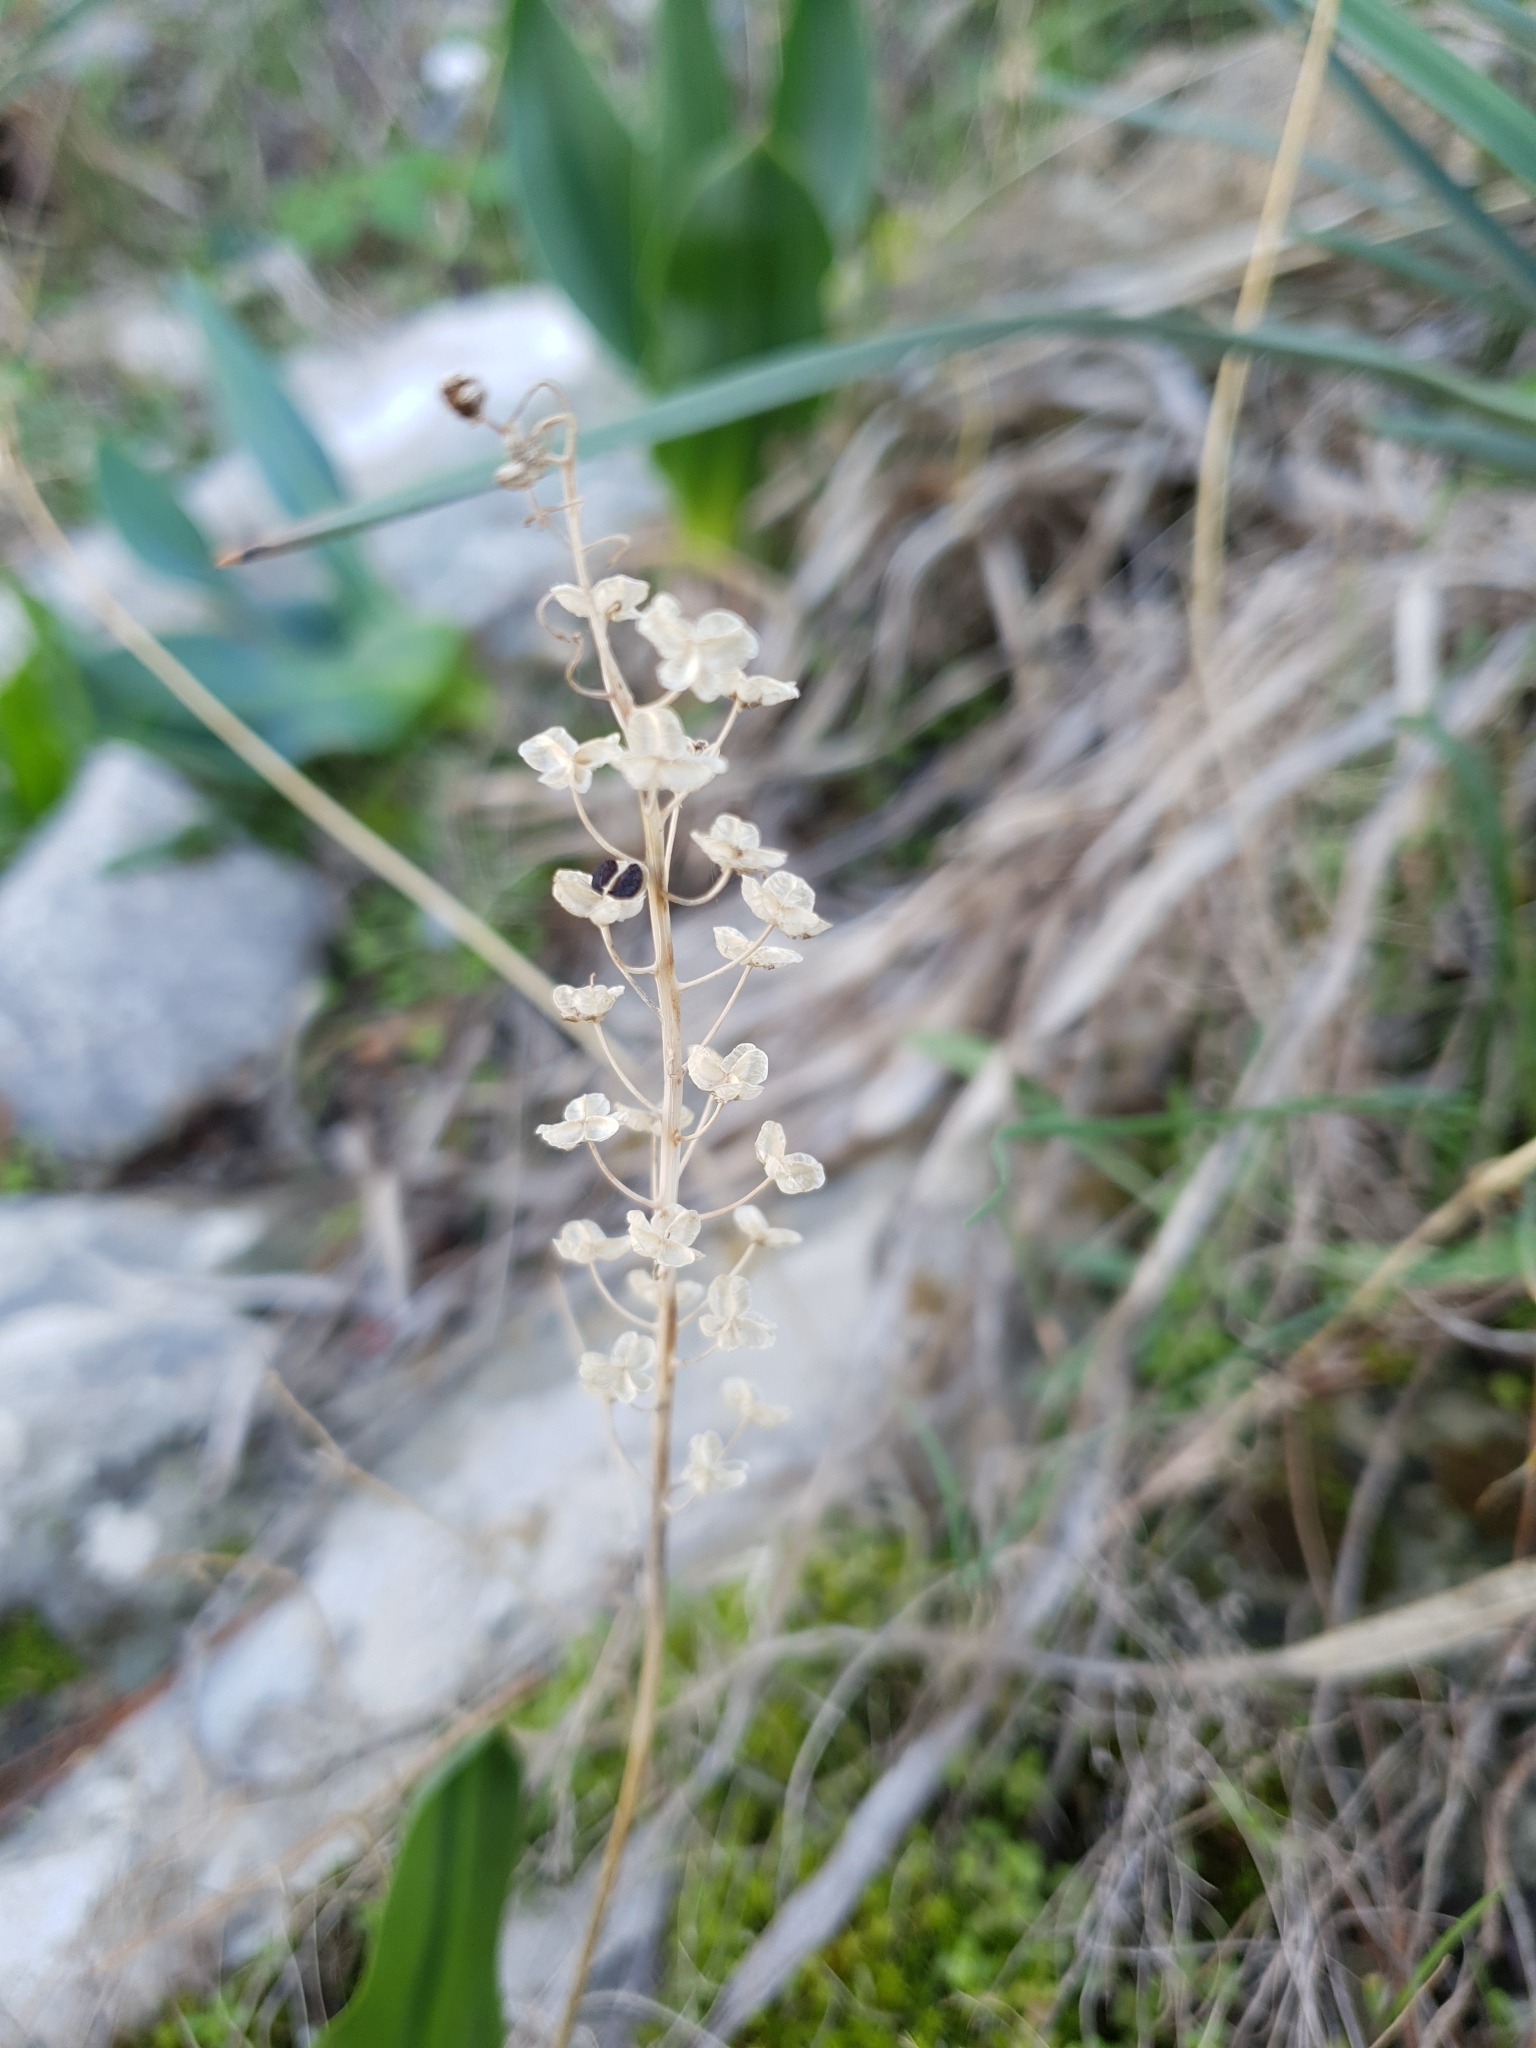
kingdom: Plantae
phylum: Tracheophyta
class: Liliopsida
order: Asparagales
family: Asparagaceae
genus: Prospero
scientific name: Prospero obtusifolium
